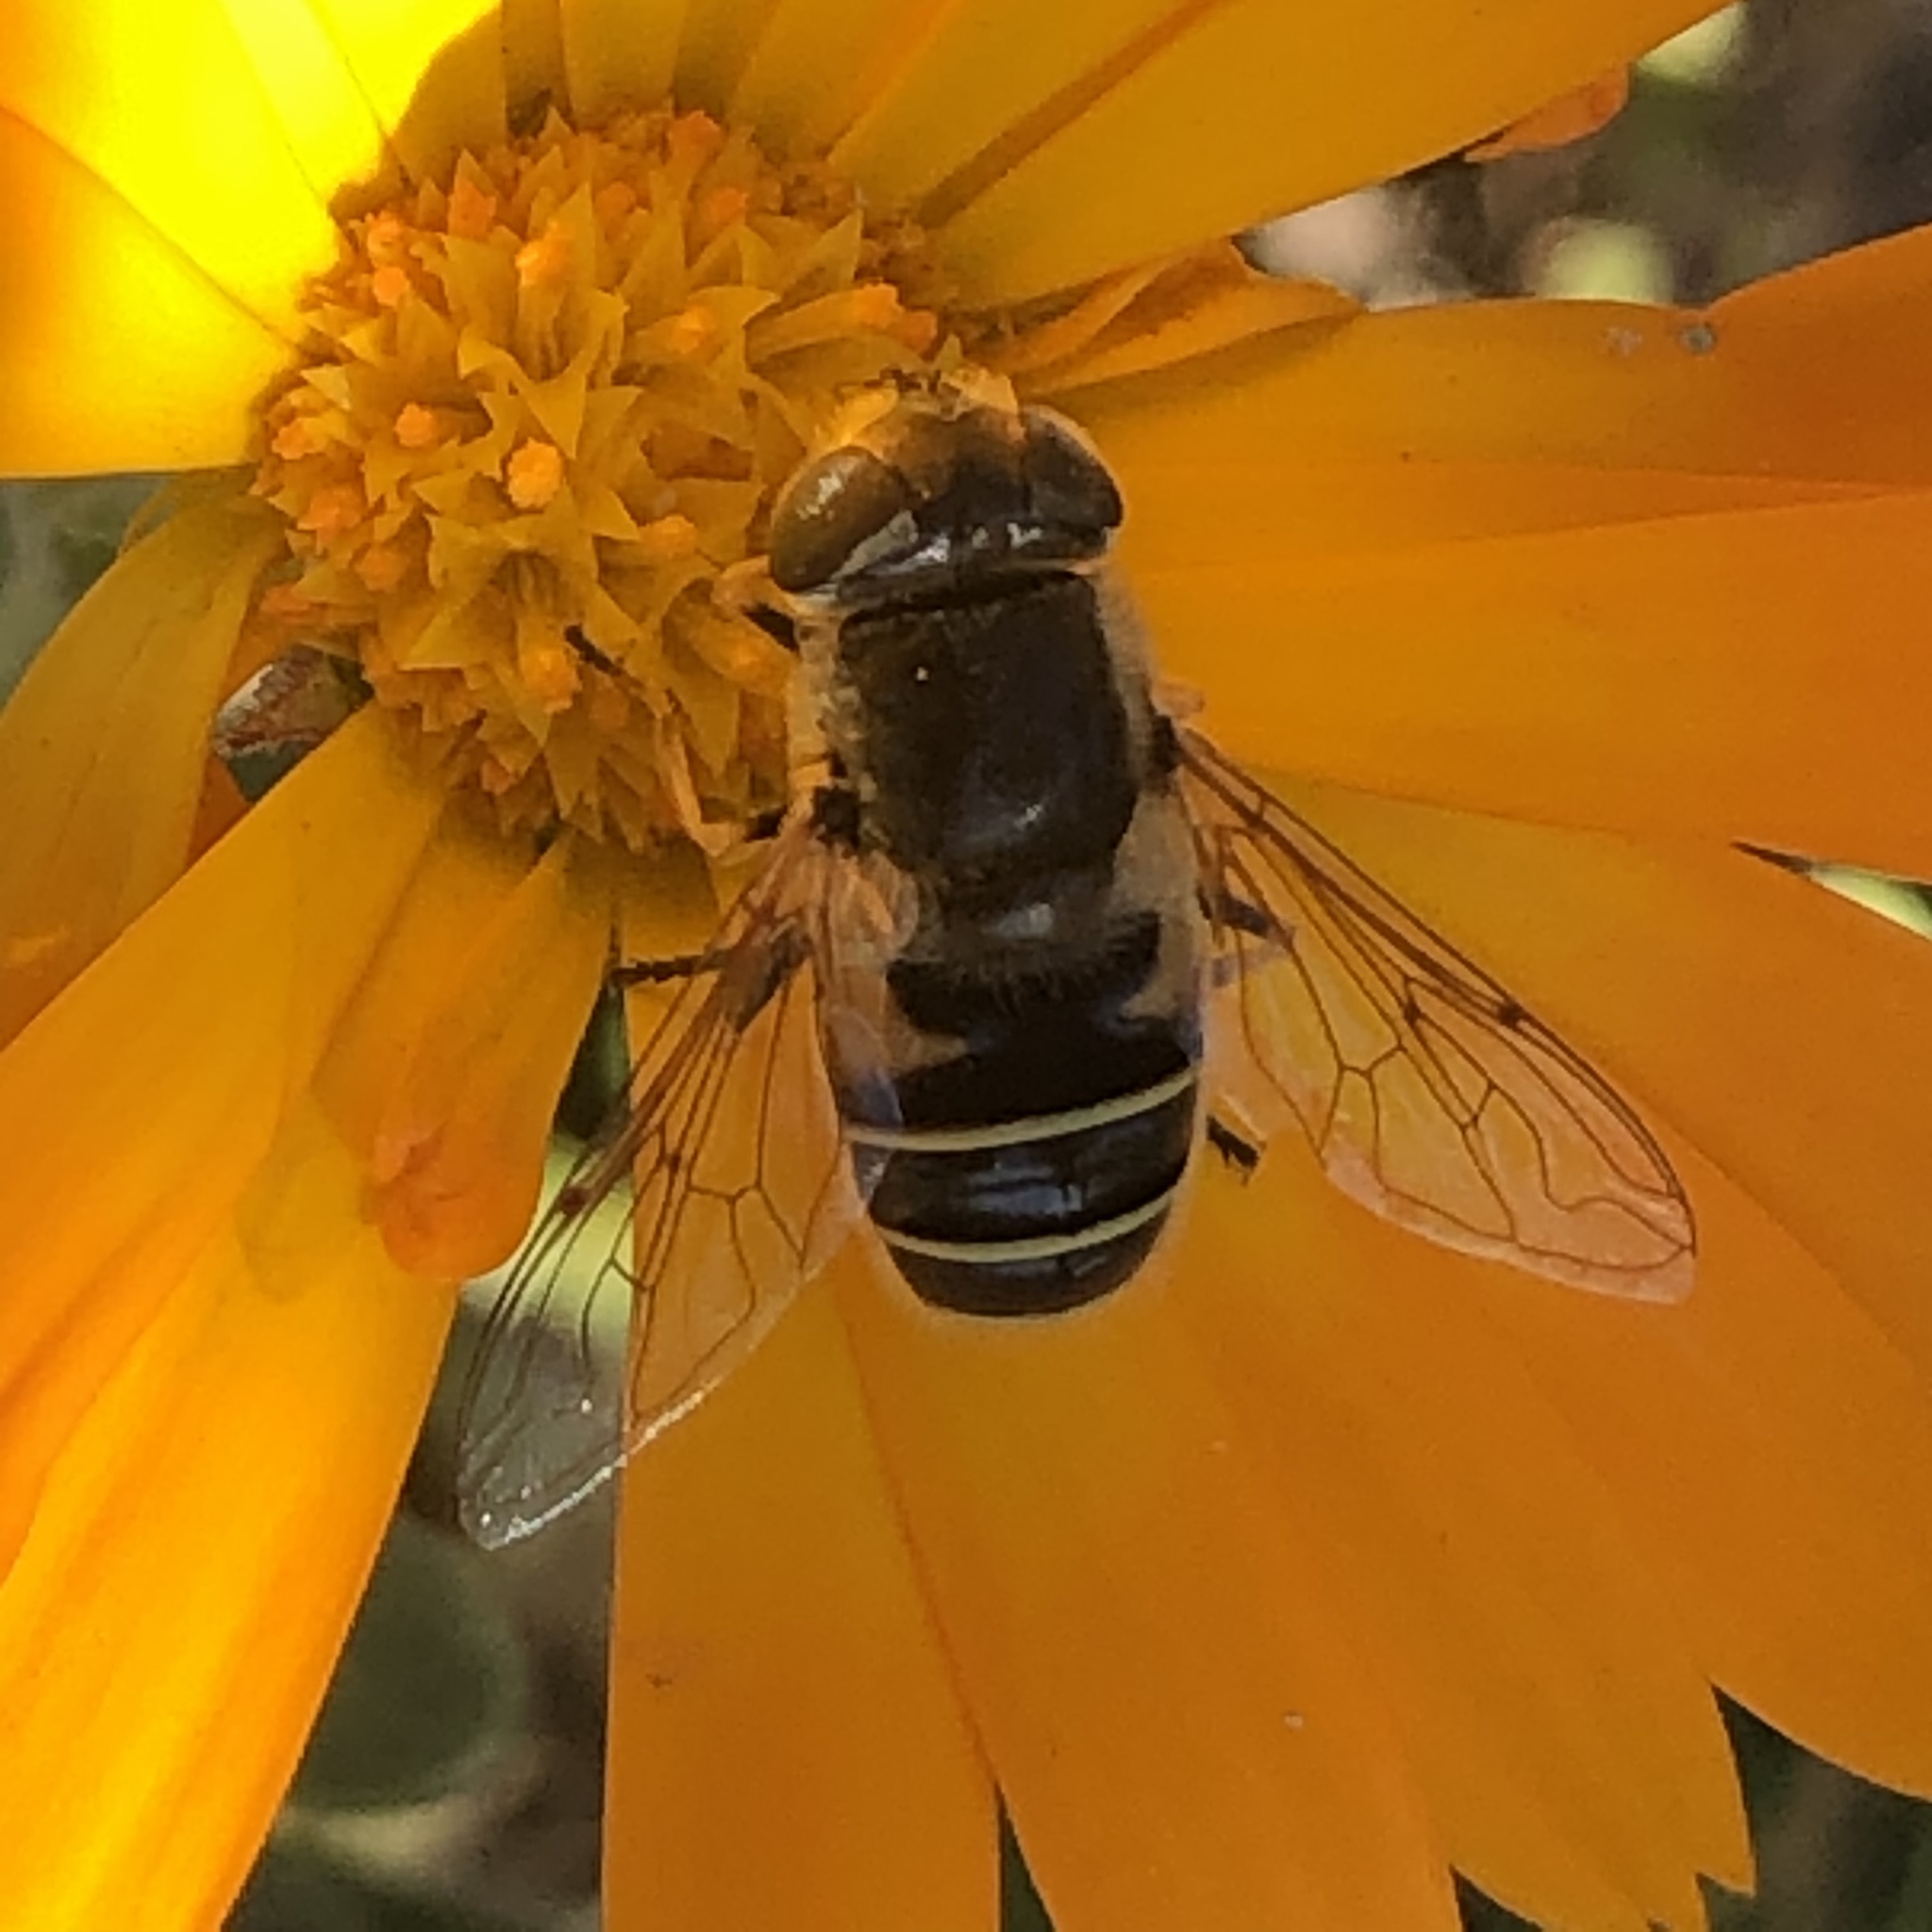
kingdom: Animalia
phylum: Arthropoda
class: Insecta
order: Diptera
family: Syrphidae
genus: Eristalis
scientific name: Eristalis hirta
